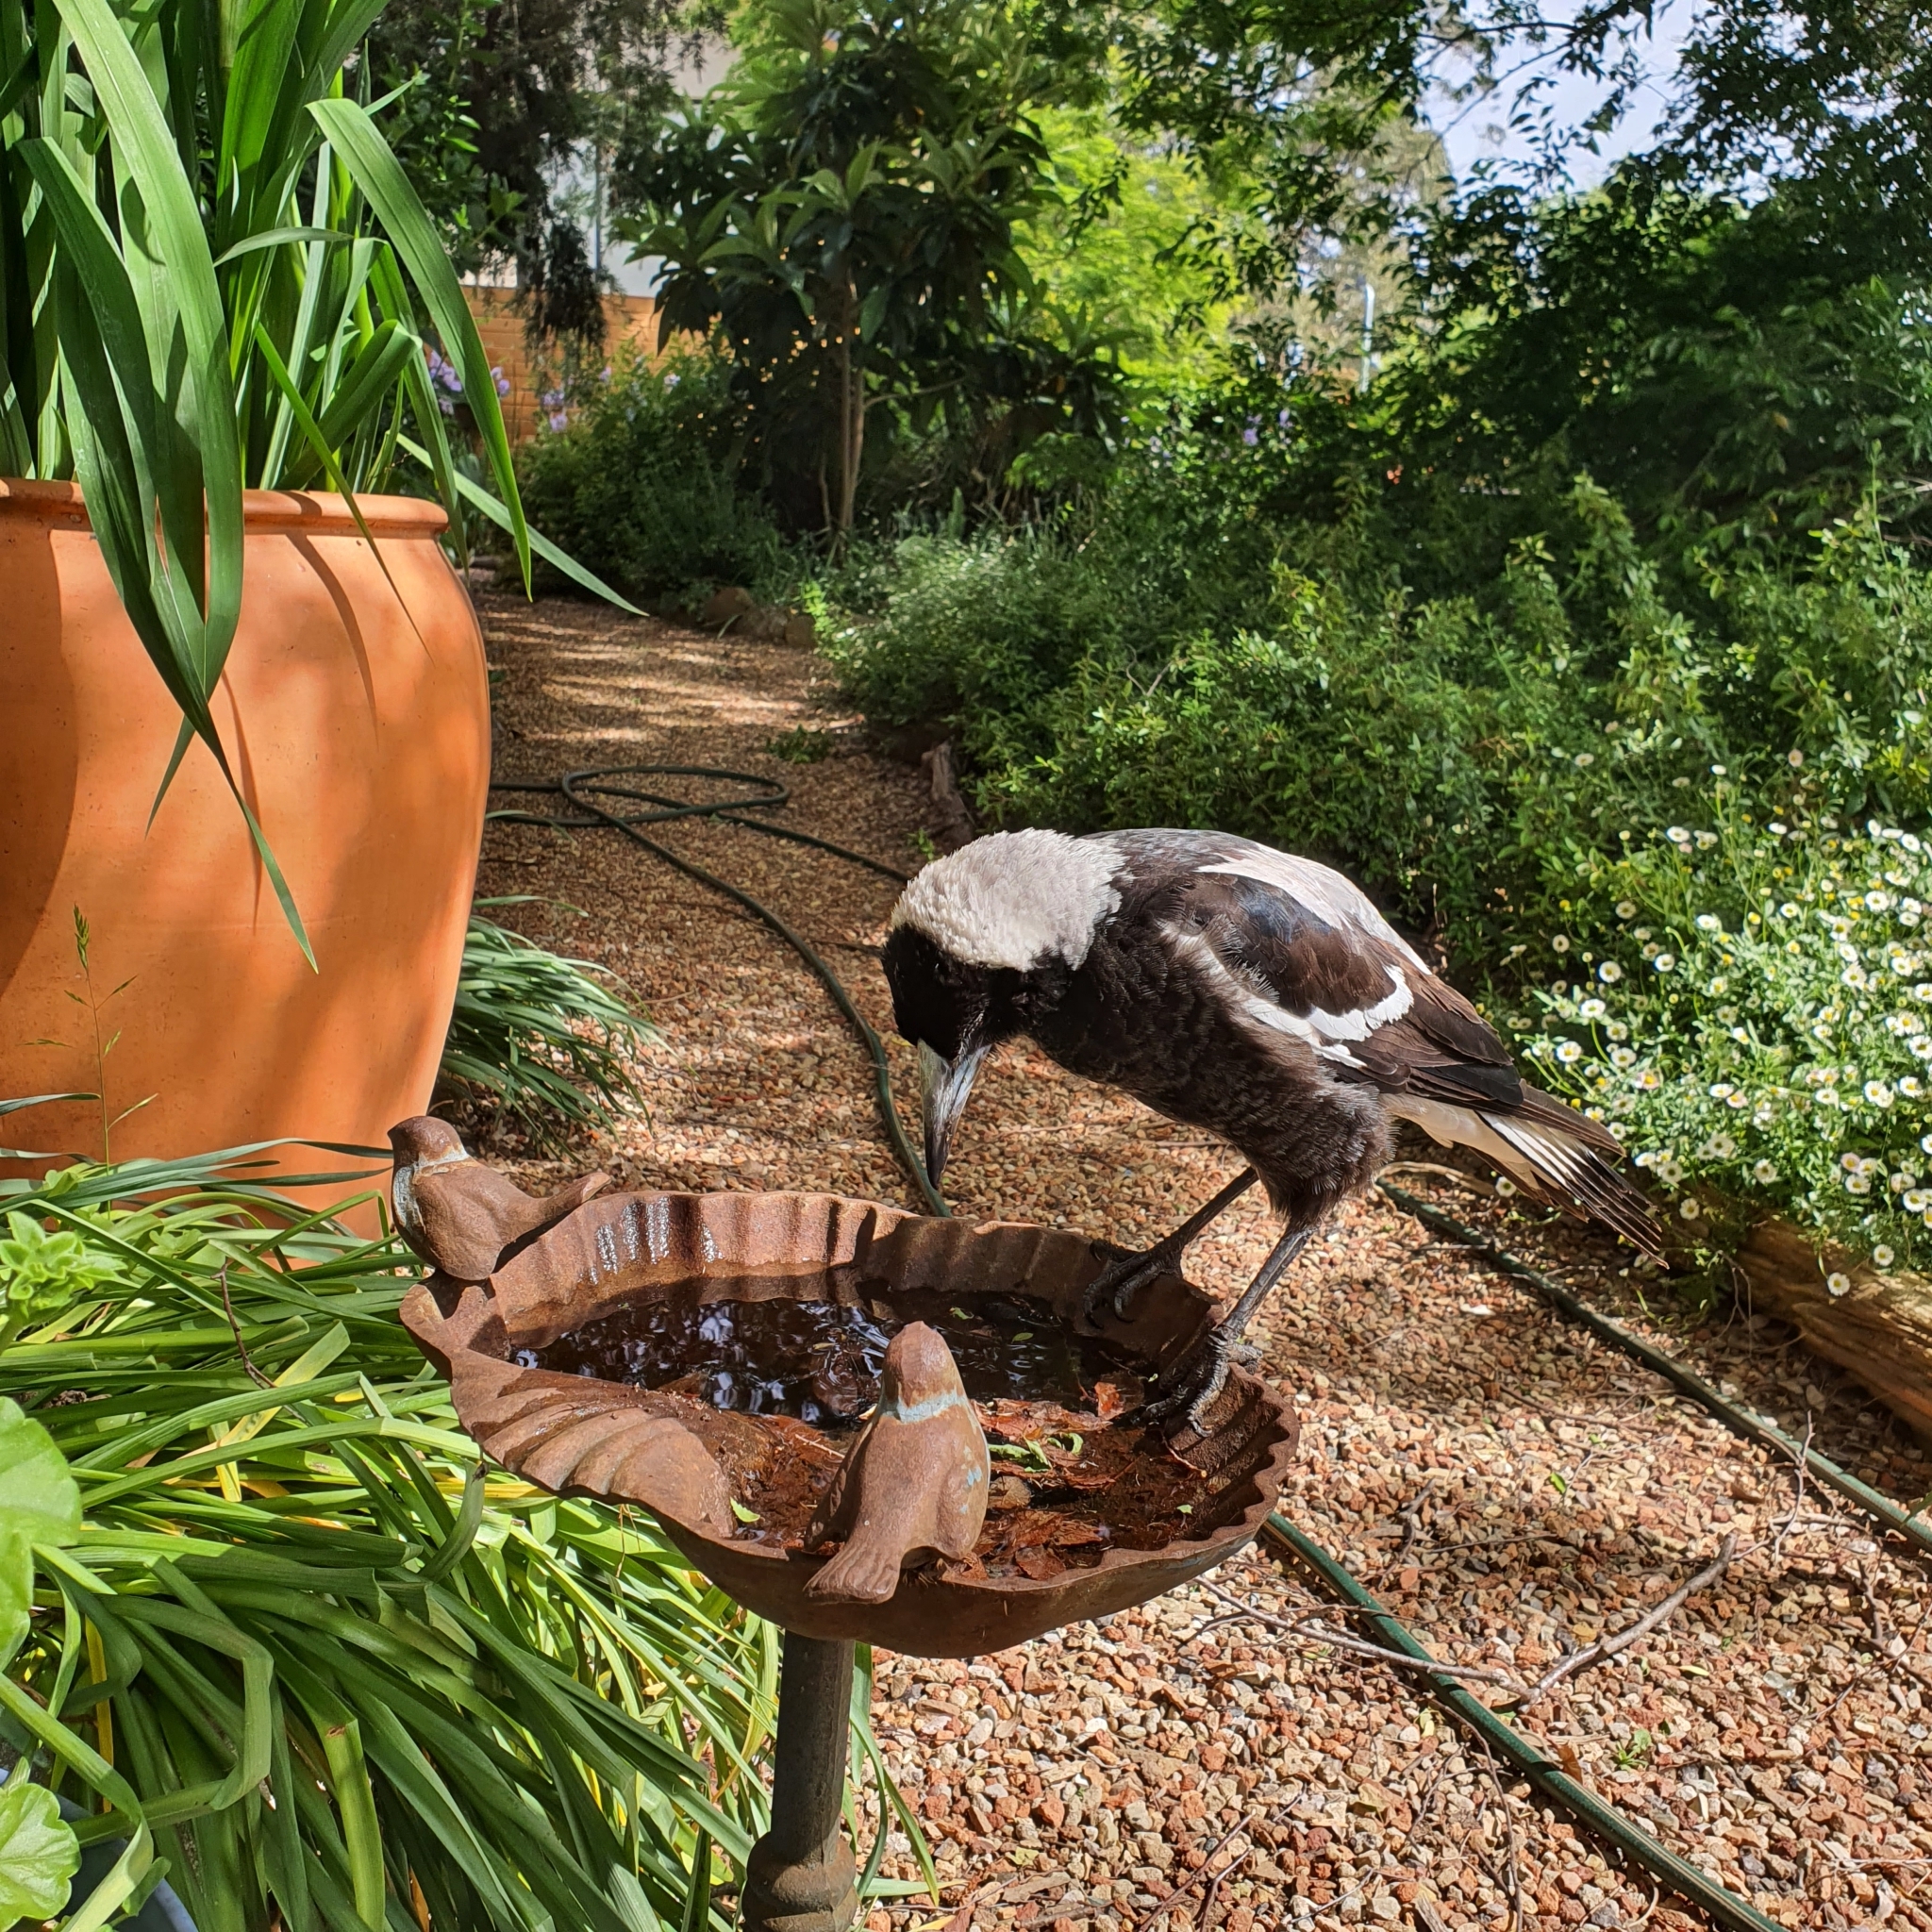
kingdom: Animalia
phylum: Chordata
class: Aves
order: Passeriformes
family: Cracticidae
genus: Gymnorhina
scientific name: Gymnorhina tibicen
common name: Australian magpie
